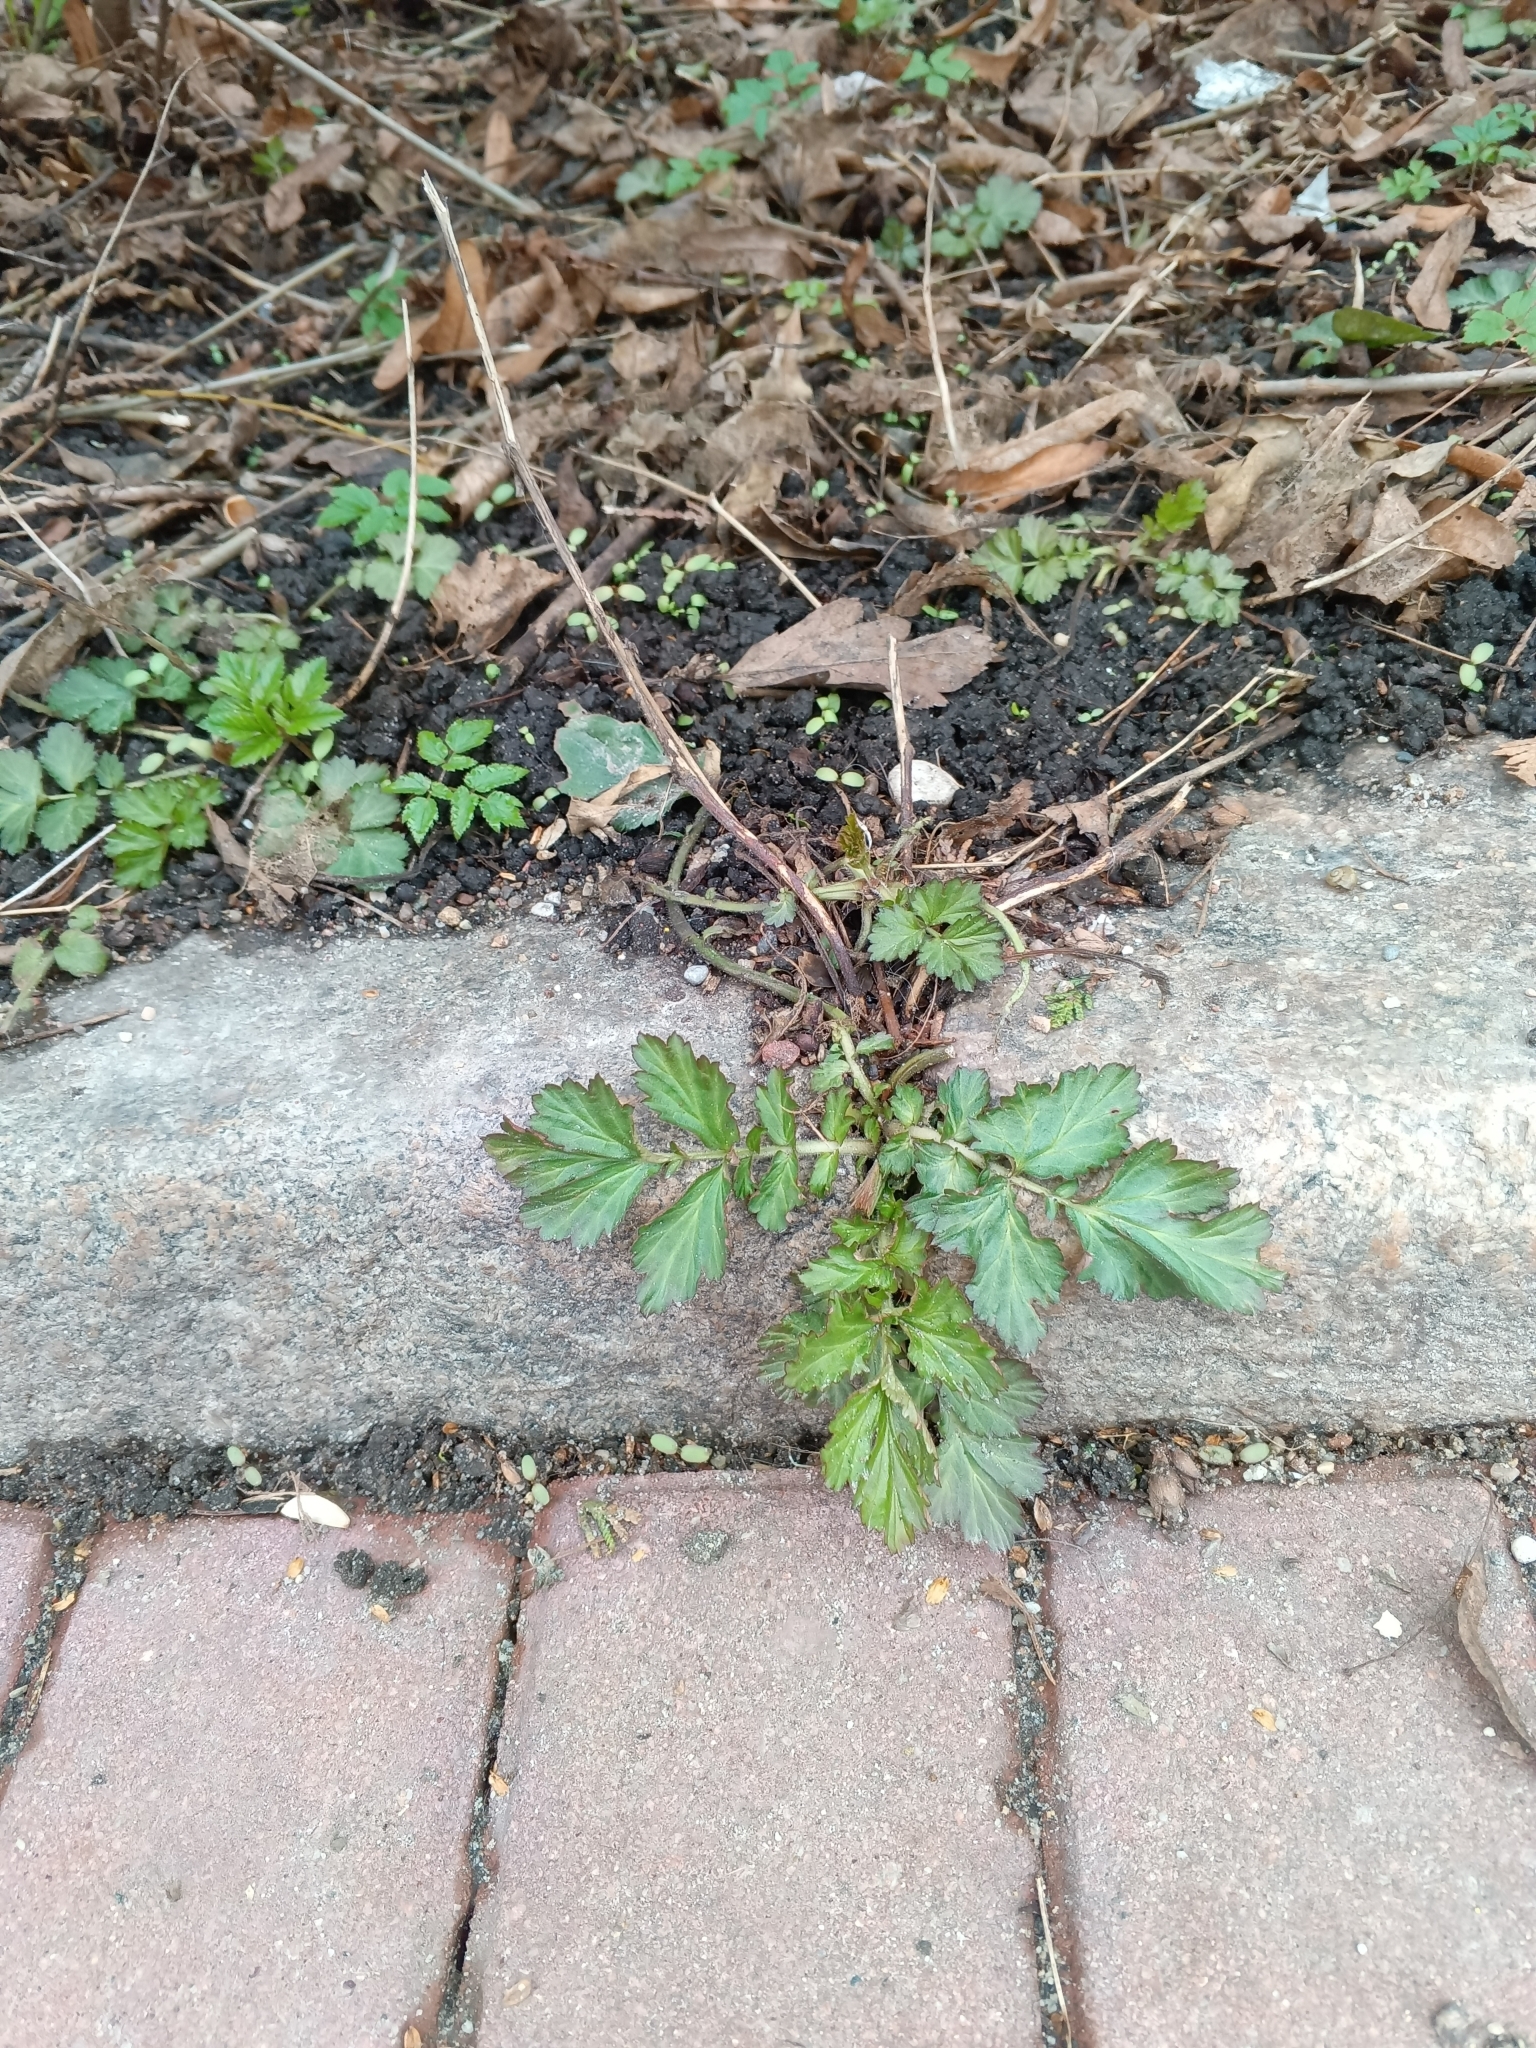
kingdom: Plantae
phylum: Tracheophyta
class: Magnoliopsida
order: Rosales
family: Rosaceae
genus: Geum
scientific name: Geum urbanum
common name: Wood avens
